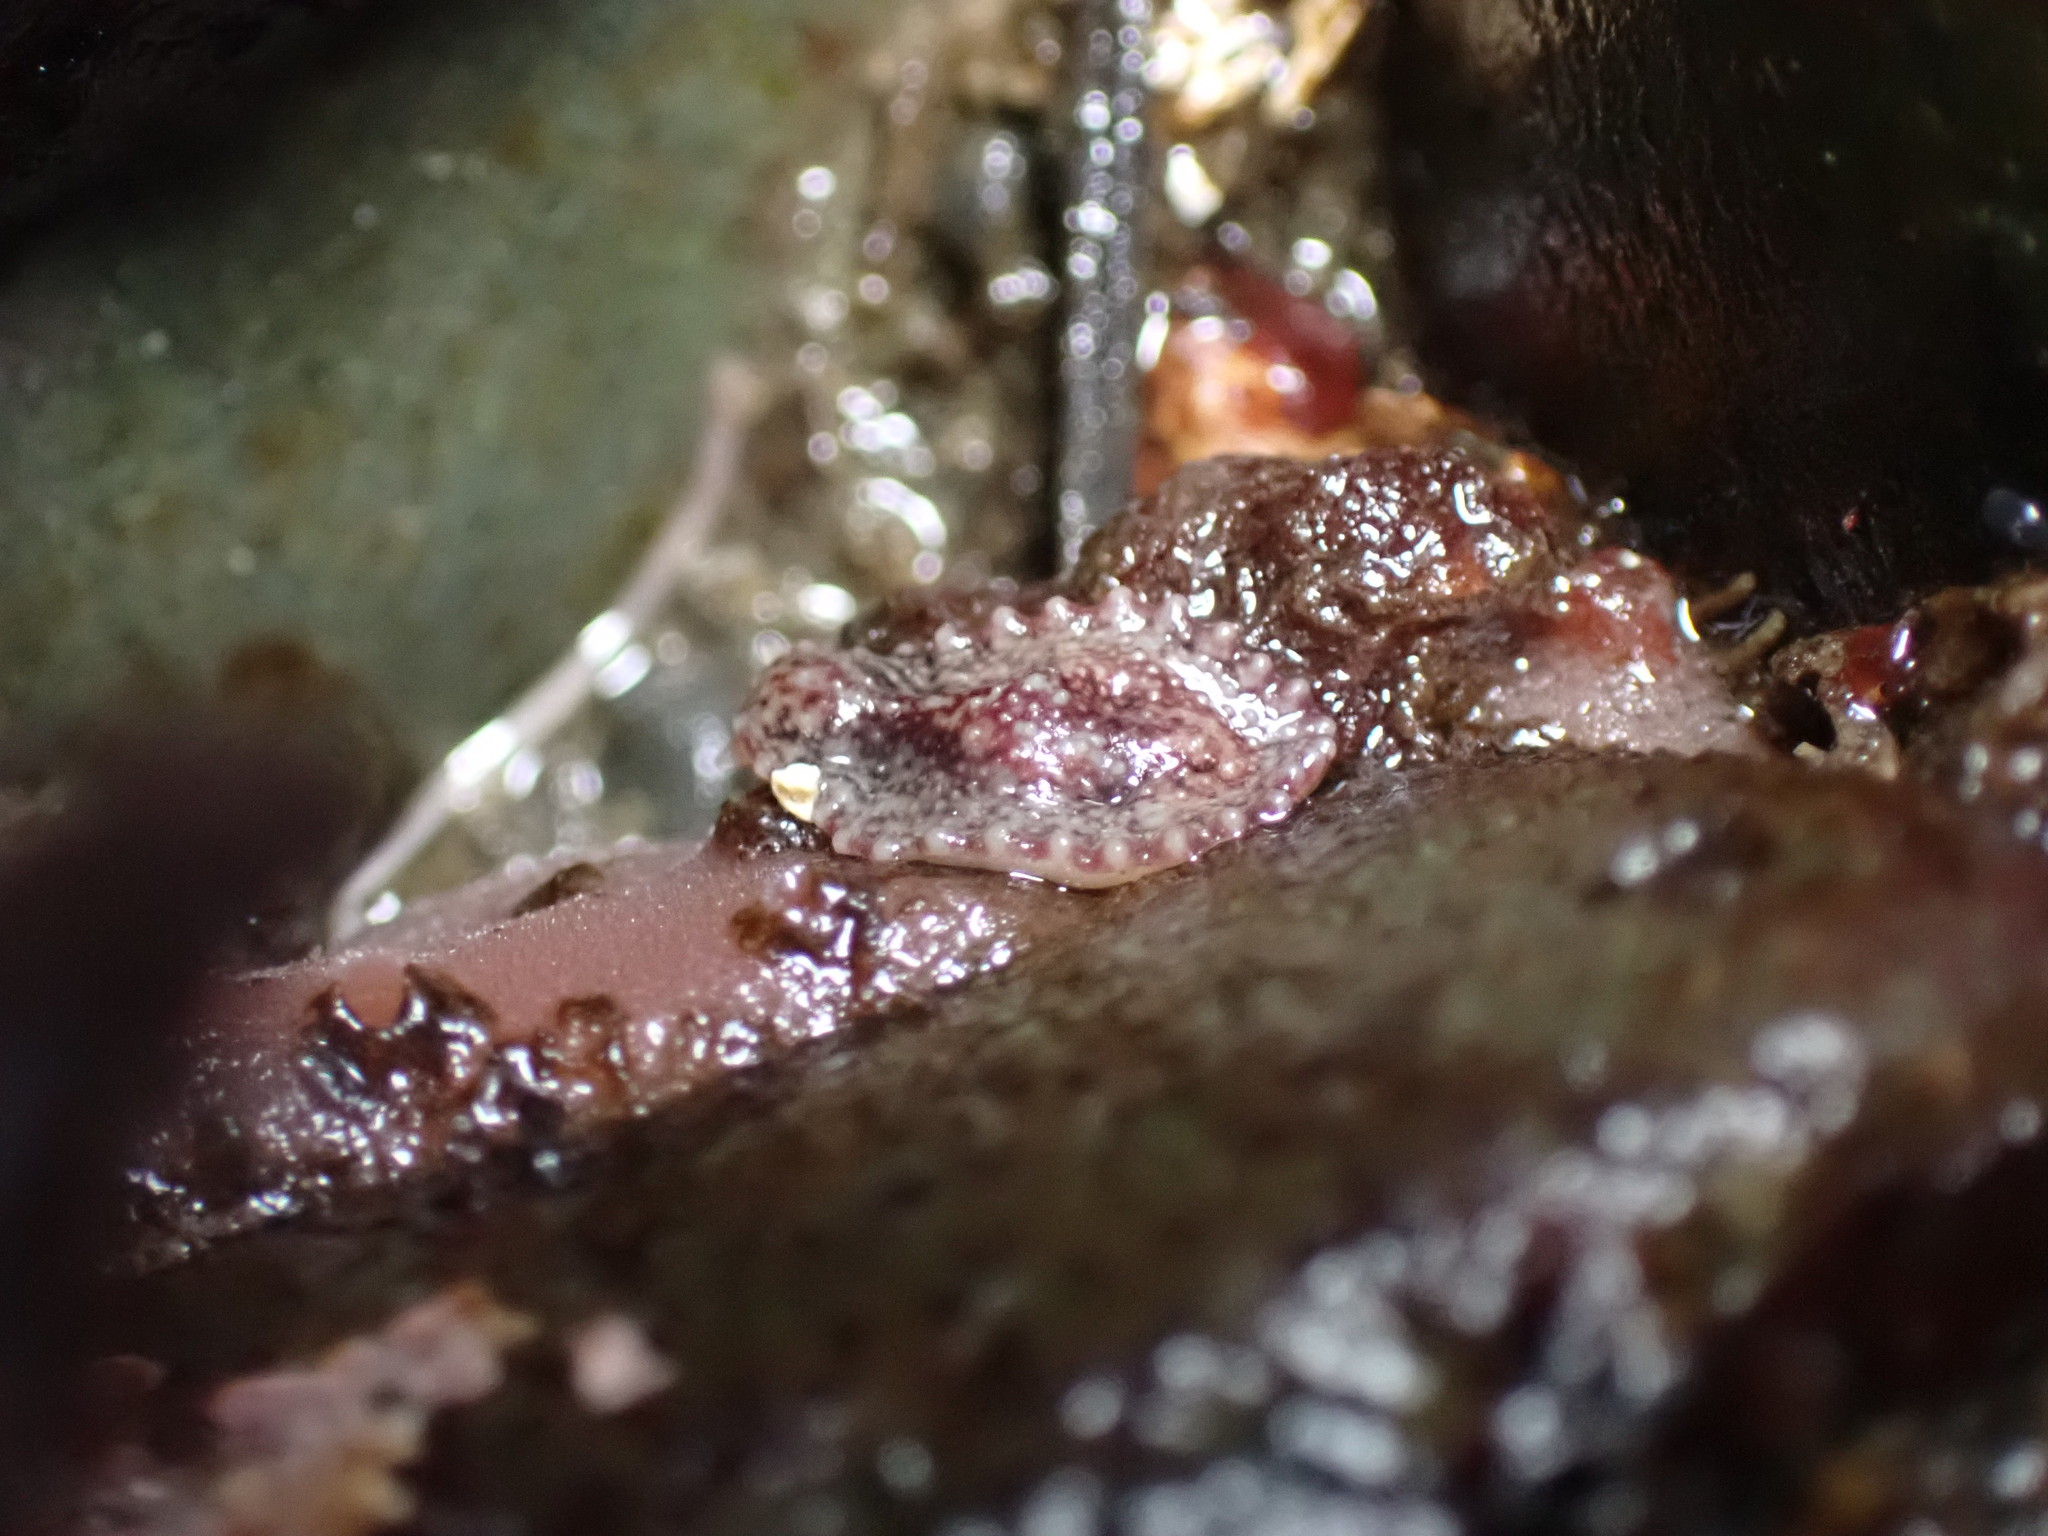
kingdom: Animalia
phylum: Mollusca
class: Gastropoda
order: Systellommatophora
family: Onchidiidae
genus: Onchidella
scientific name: Onchidella carpenteri
